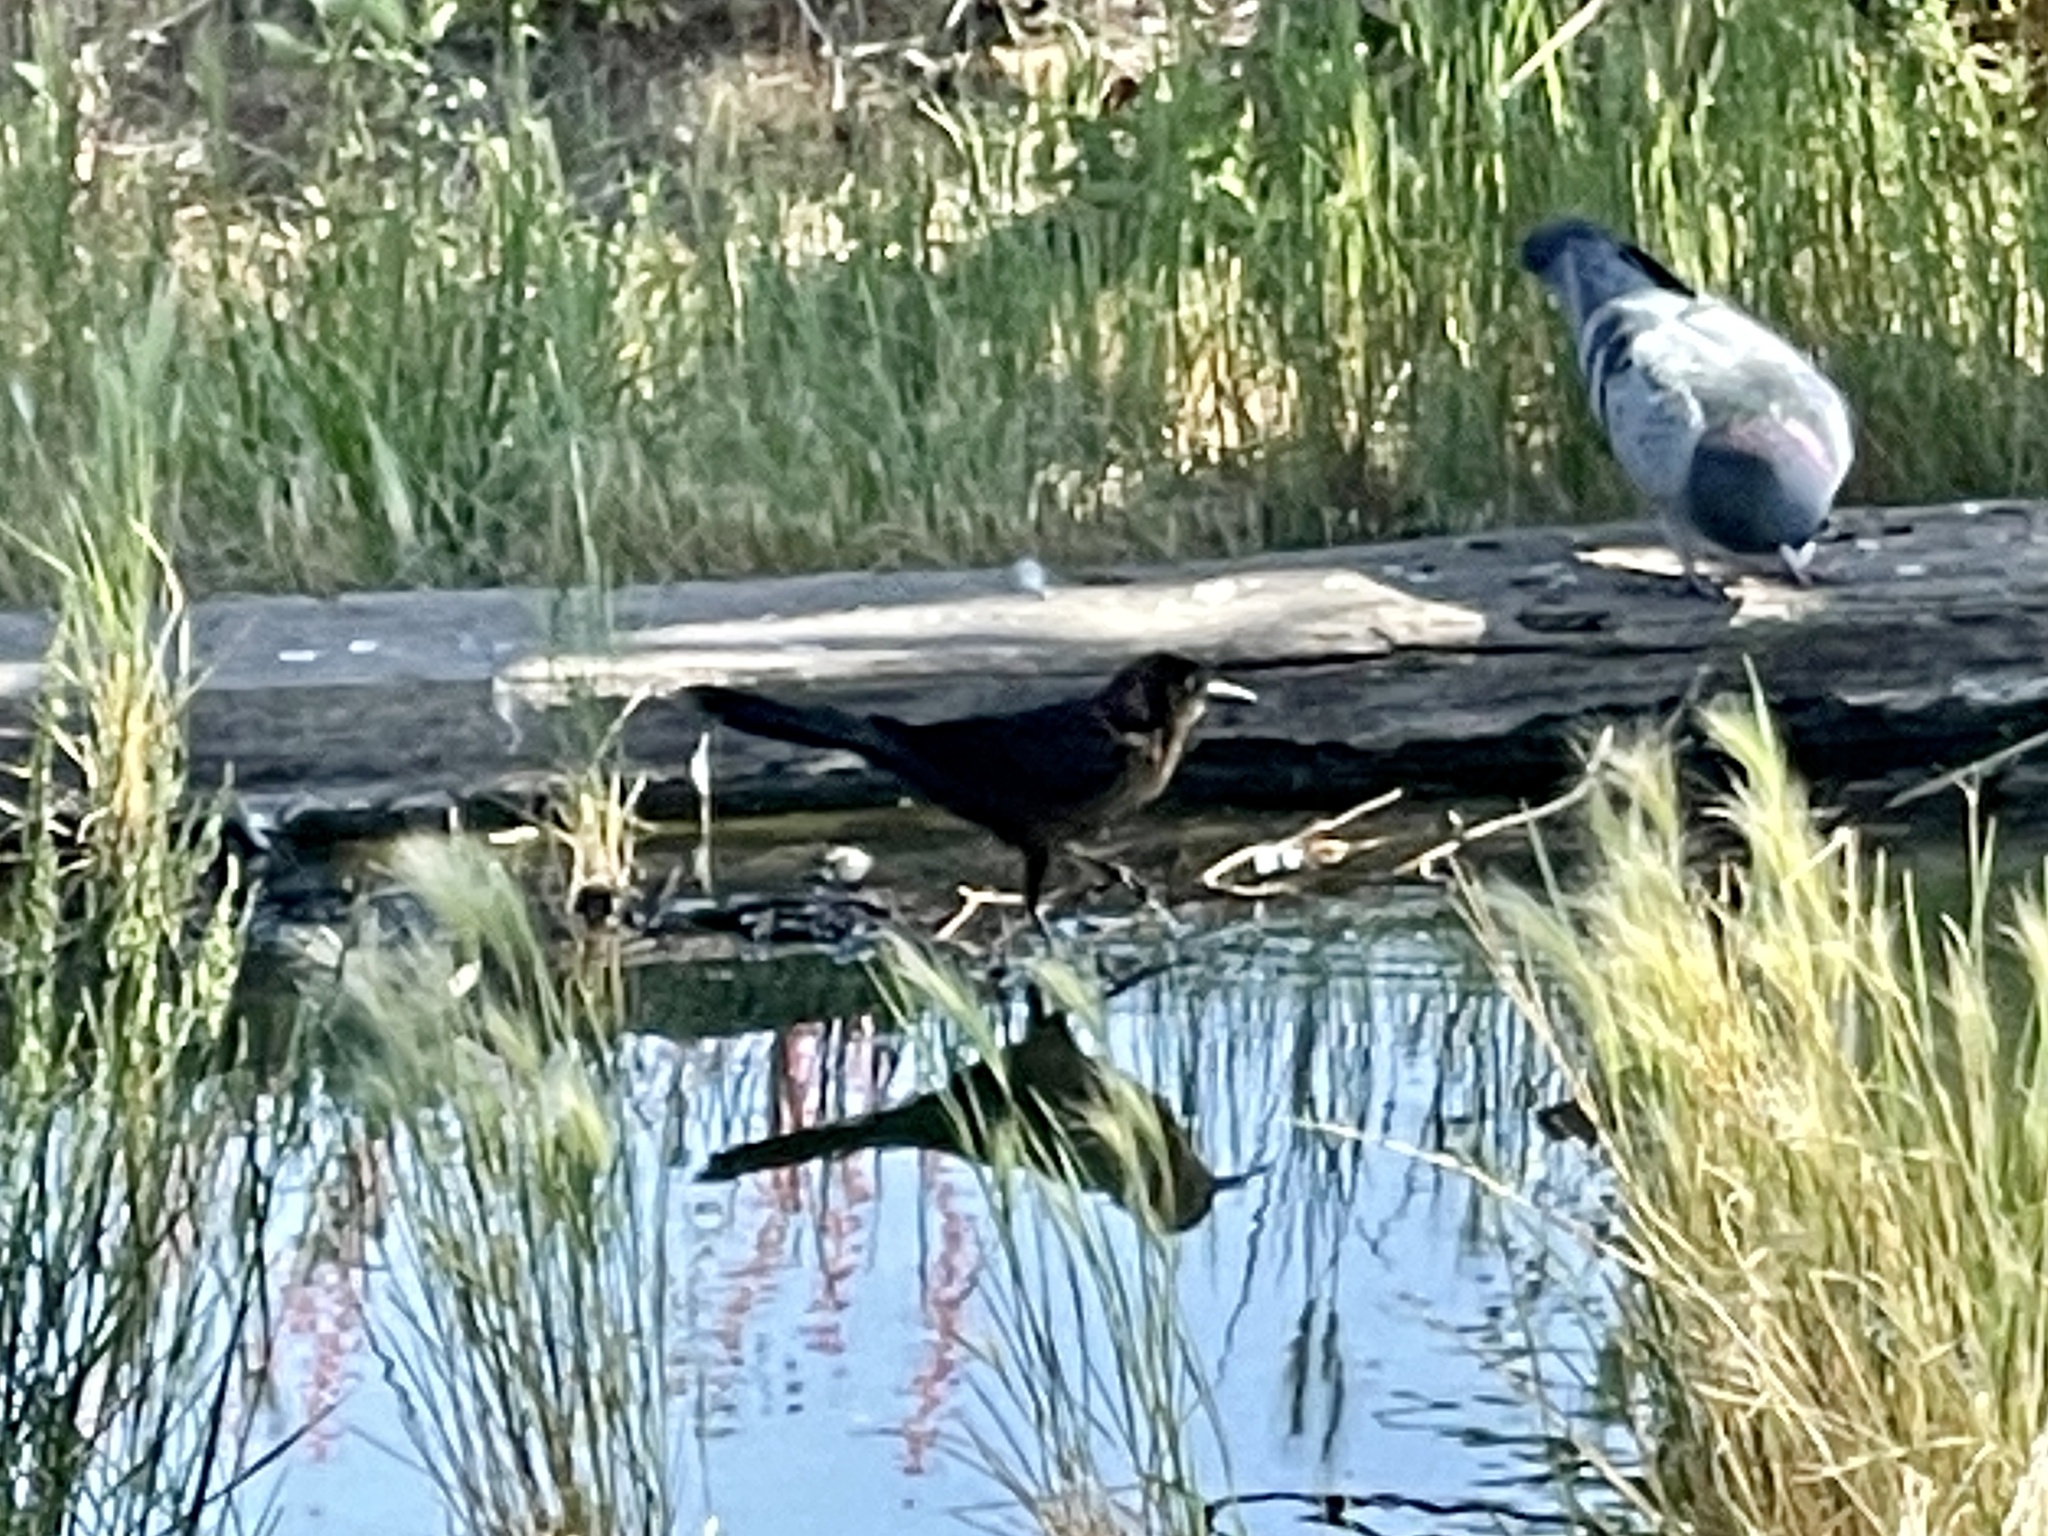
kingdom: Animalia
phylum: Chordata
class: Aves
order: Passeriformes
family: Icteridae
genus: Quiscalus
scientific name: Quiscalus mexicanus
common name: Great-tailed grackle
